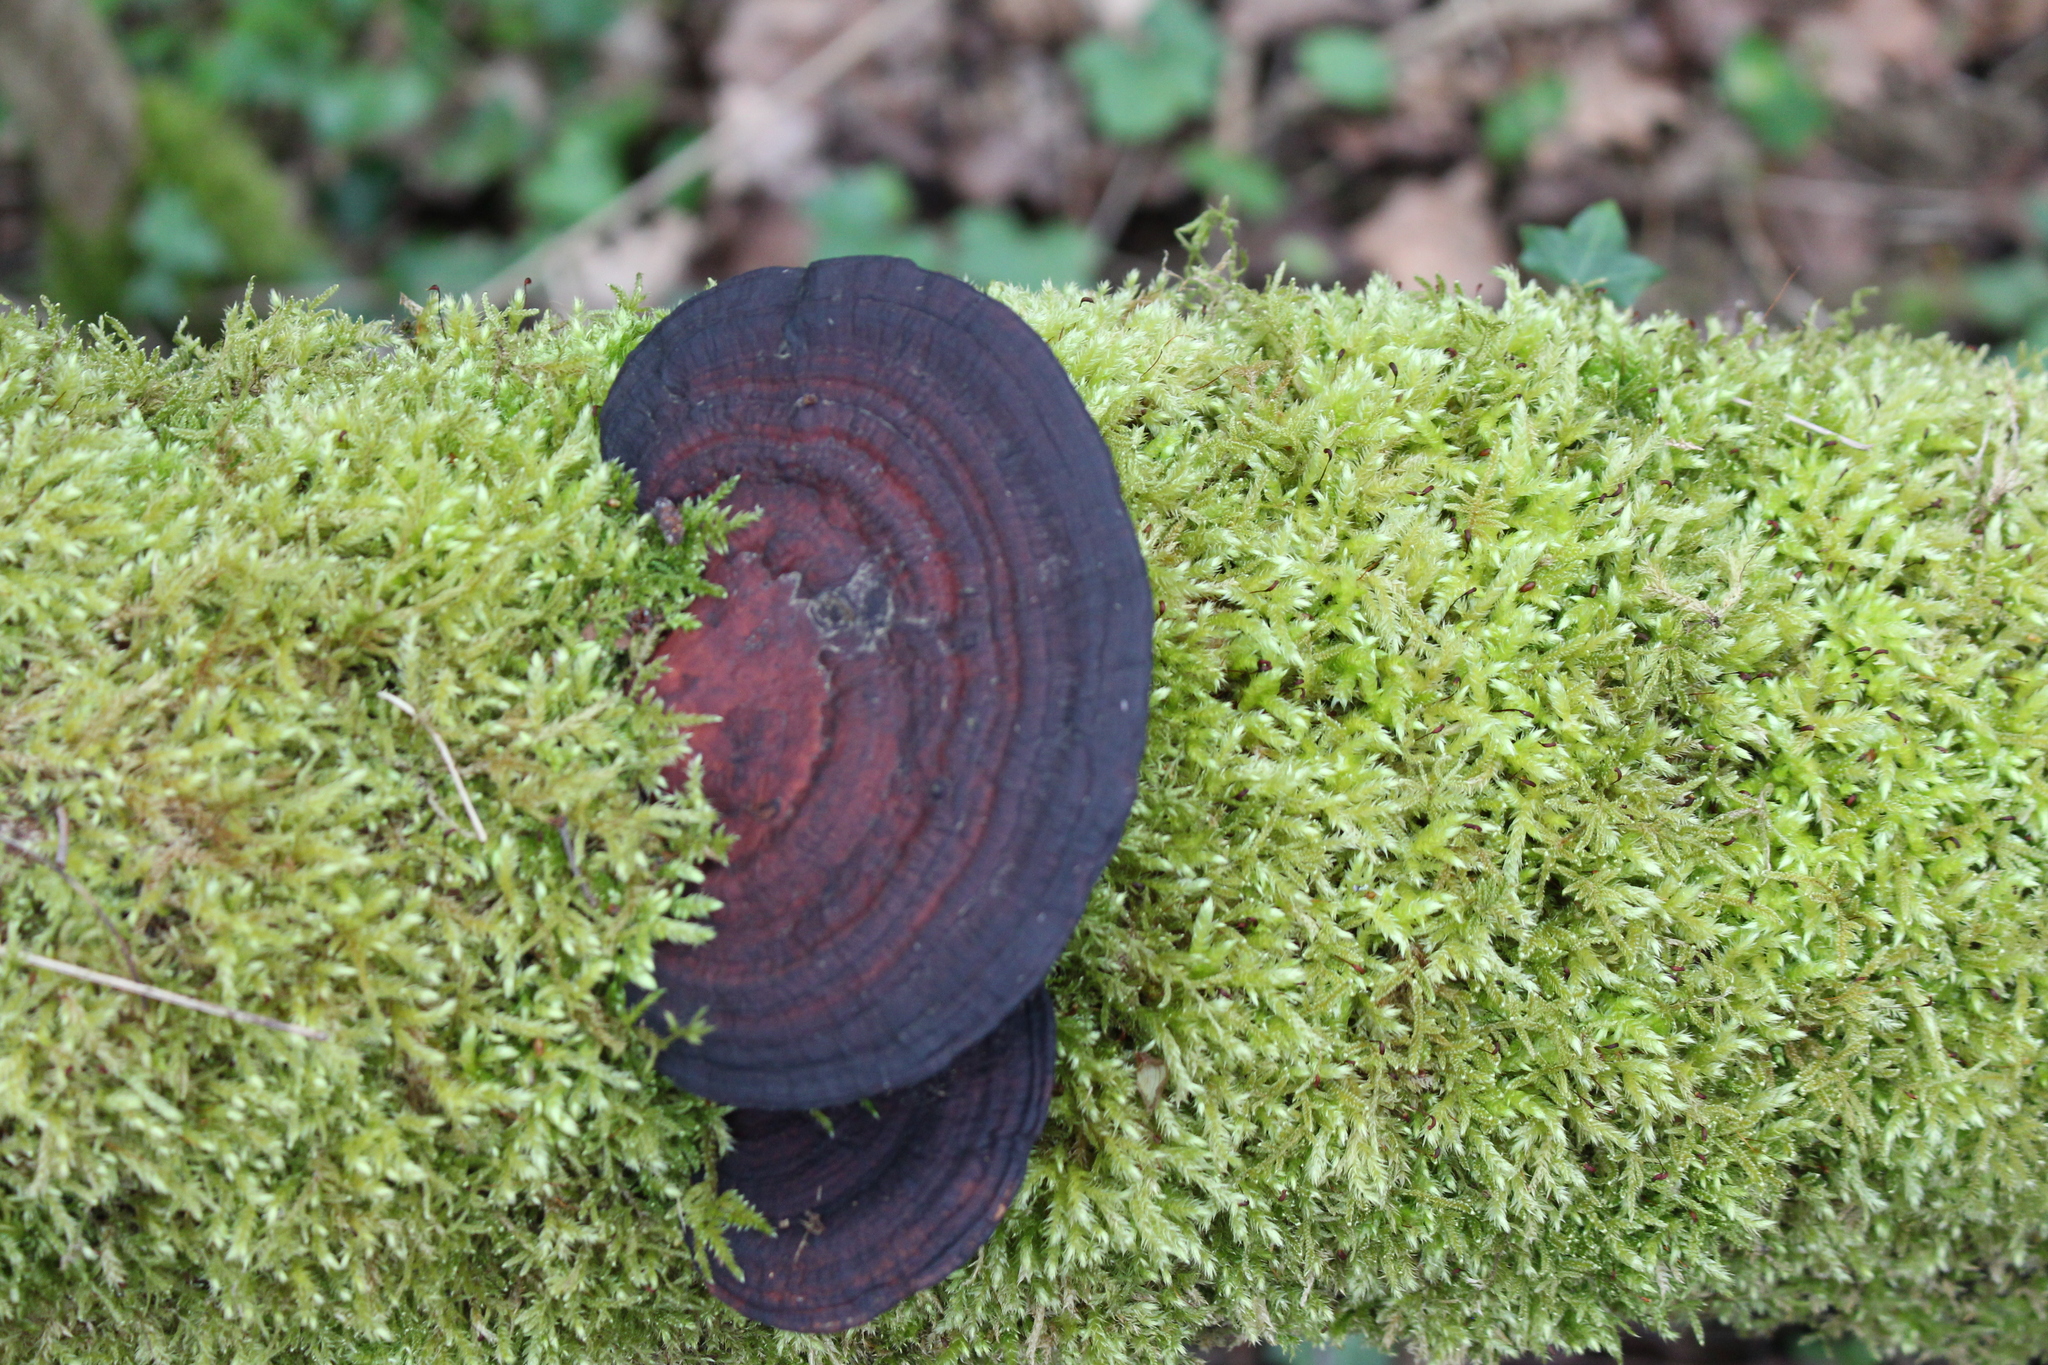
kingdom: Fungi
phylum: Basidiomycota
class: Agaricomycetes
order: Polyporales
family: Polyporaceae
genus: Daedaleopsis
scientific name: Daedaleopsis tricolor
